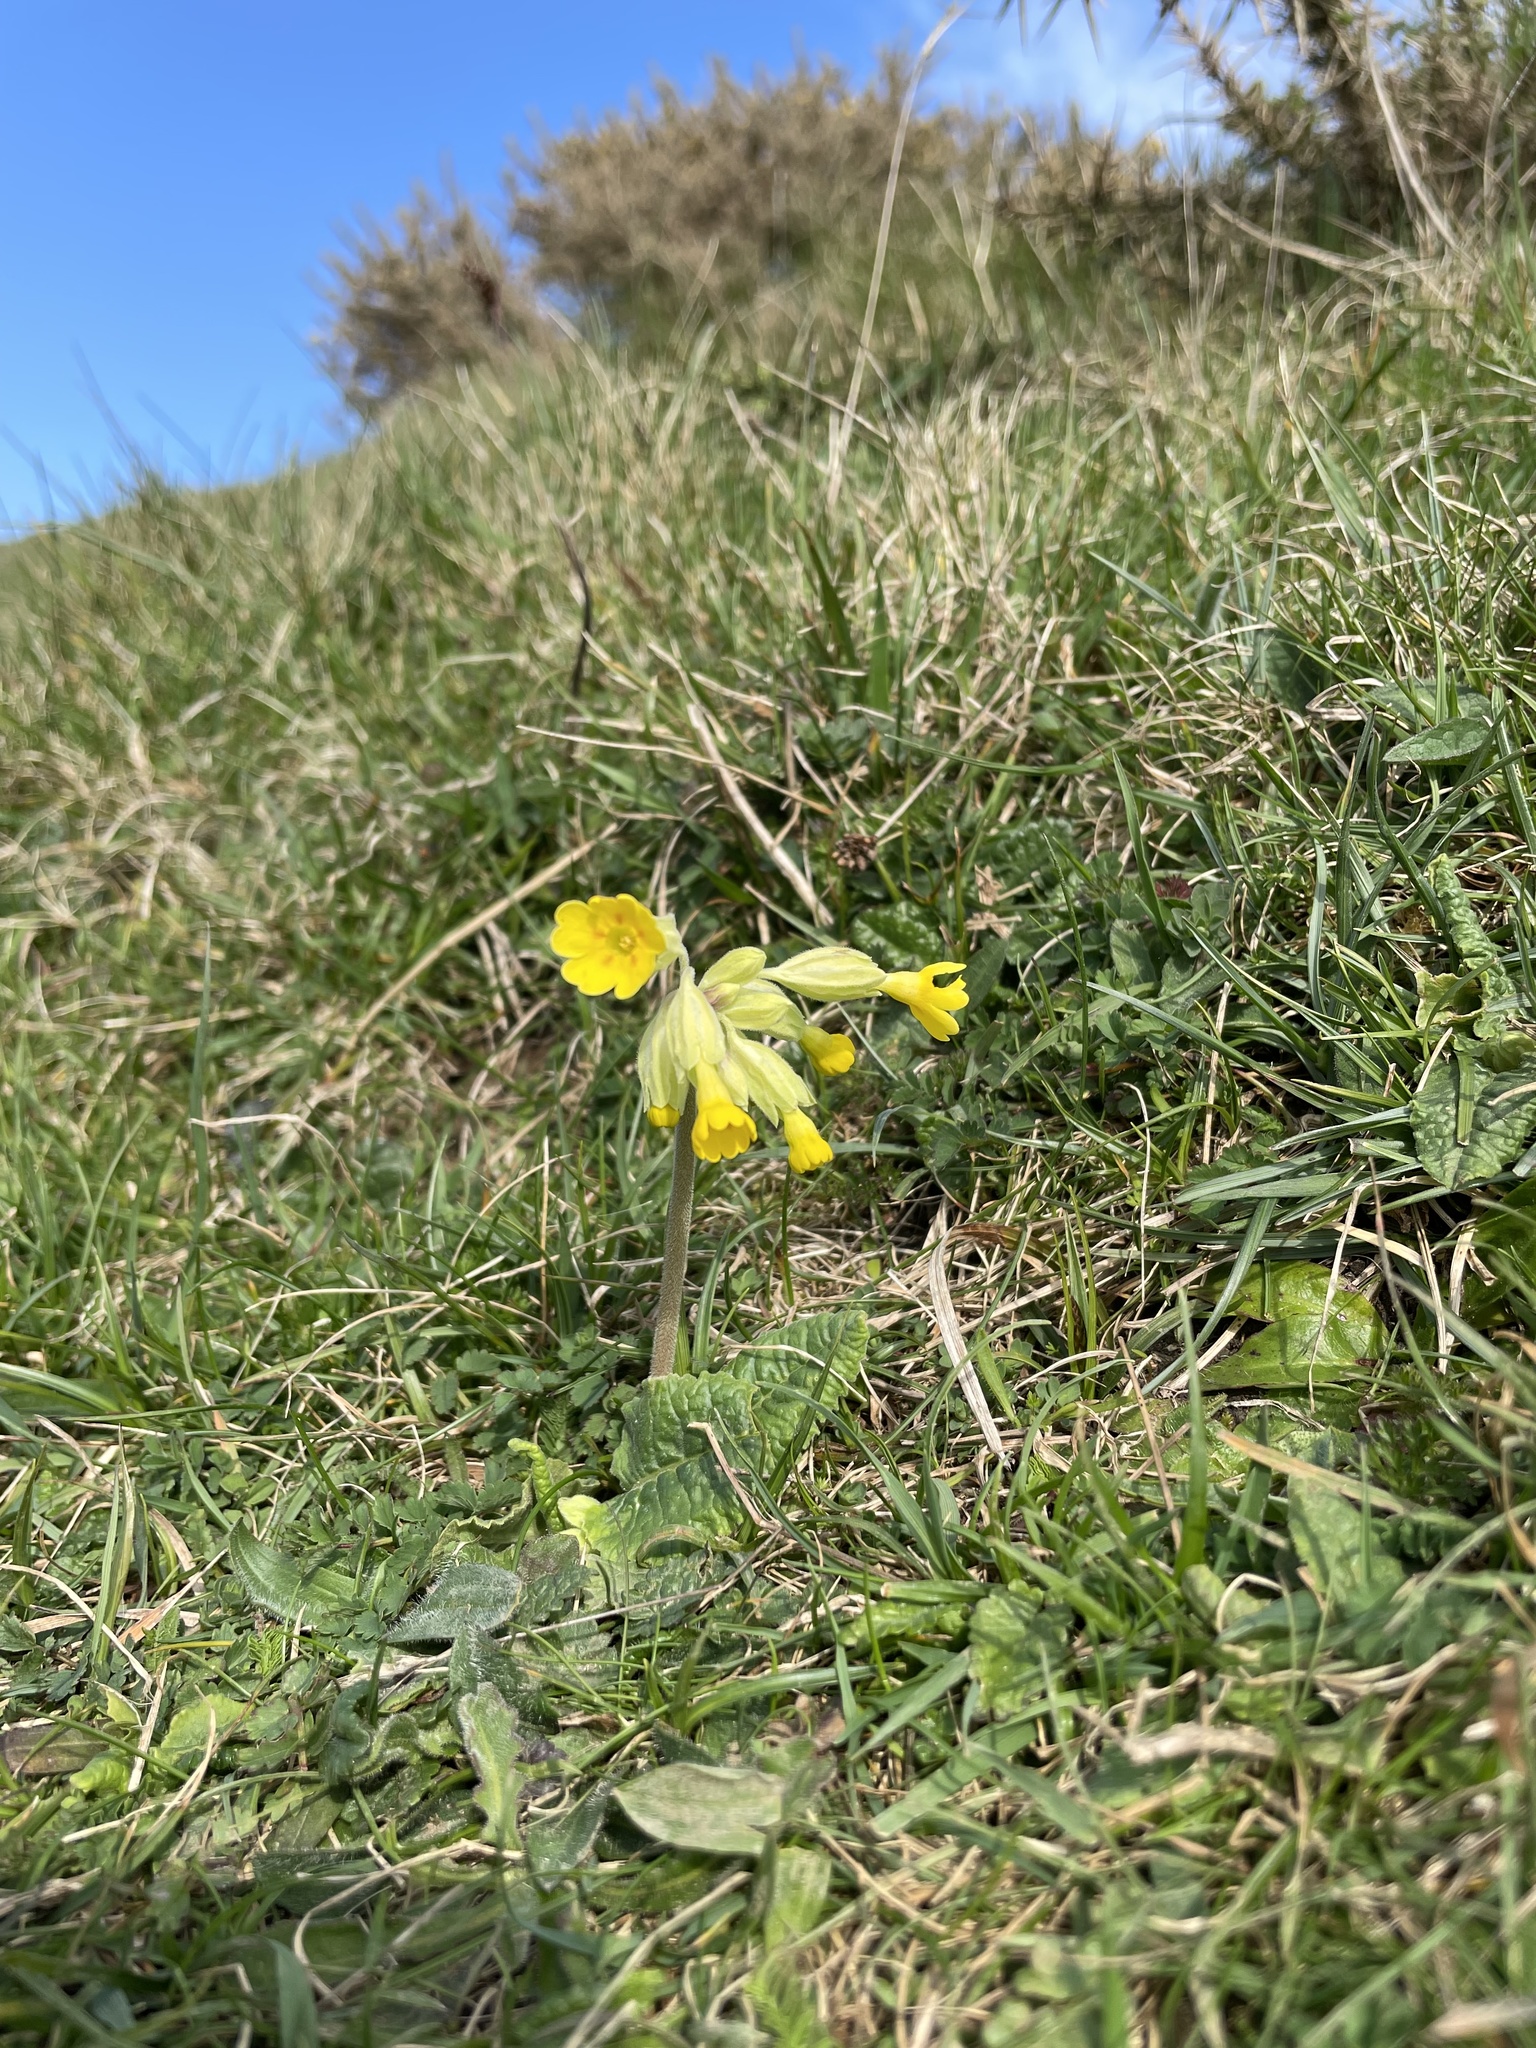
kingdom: Plantae
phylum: Tracheophyta
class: Magnoliopsida
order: Ericales
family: Primulaceae
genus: Primula
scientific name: Primula veris
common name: Cowslip
